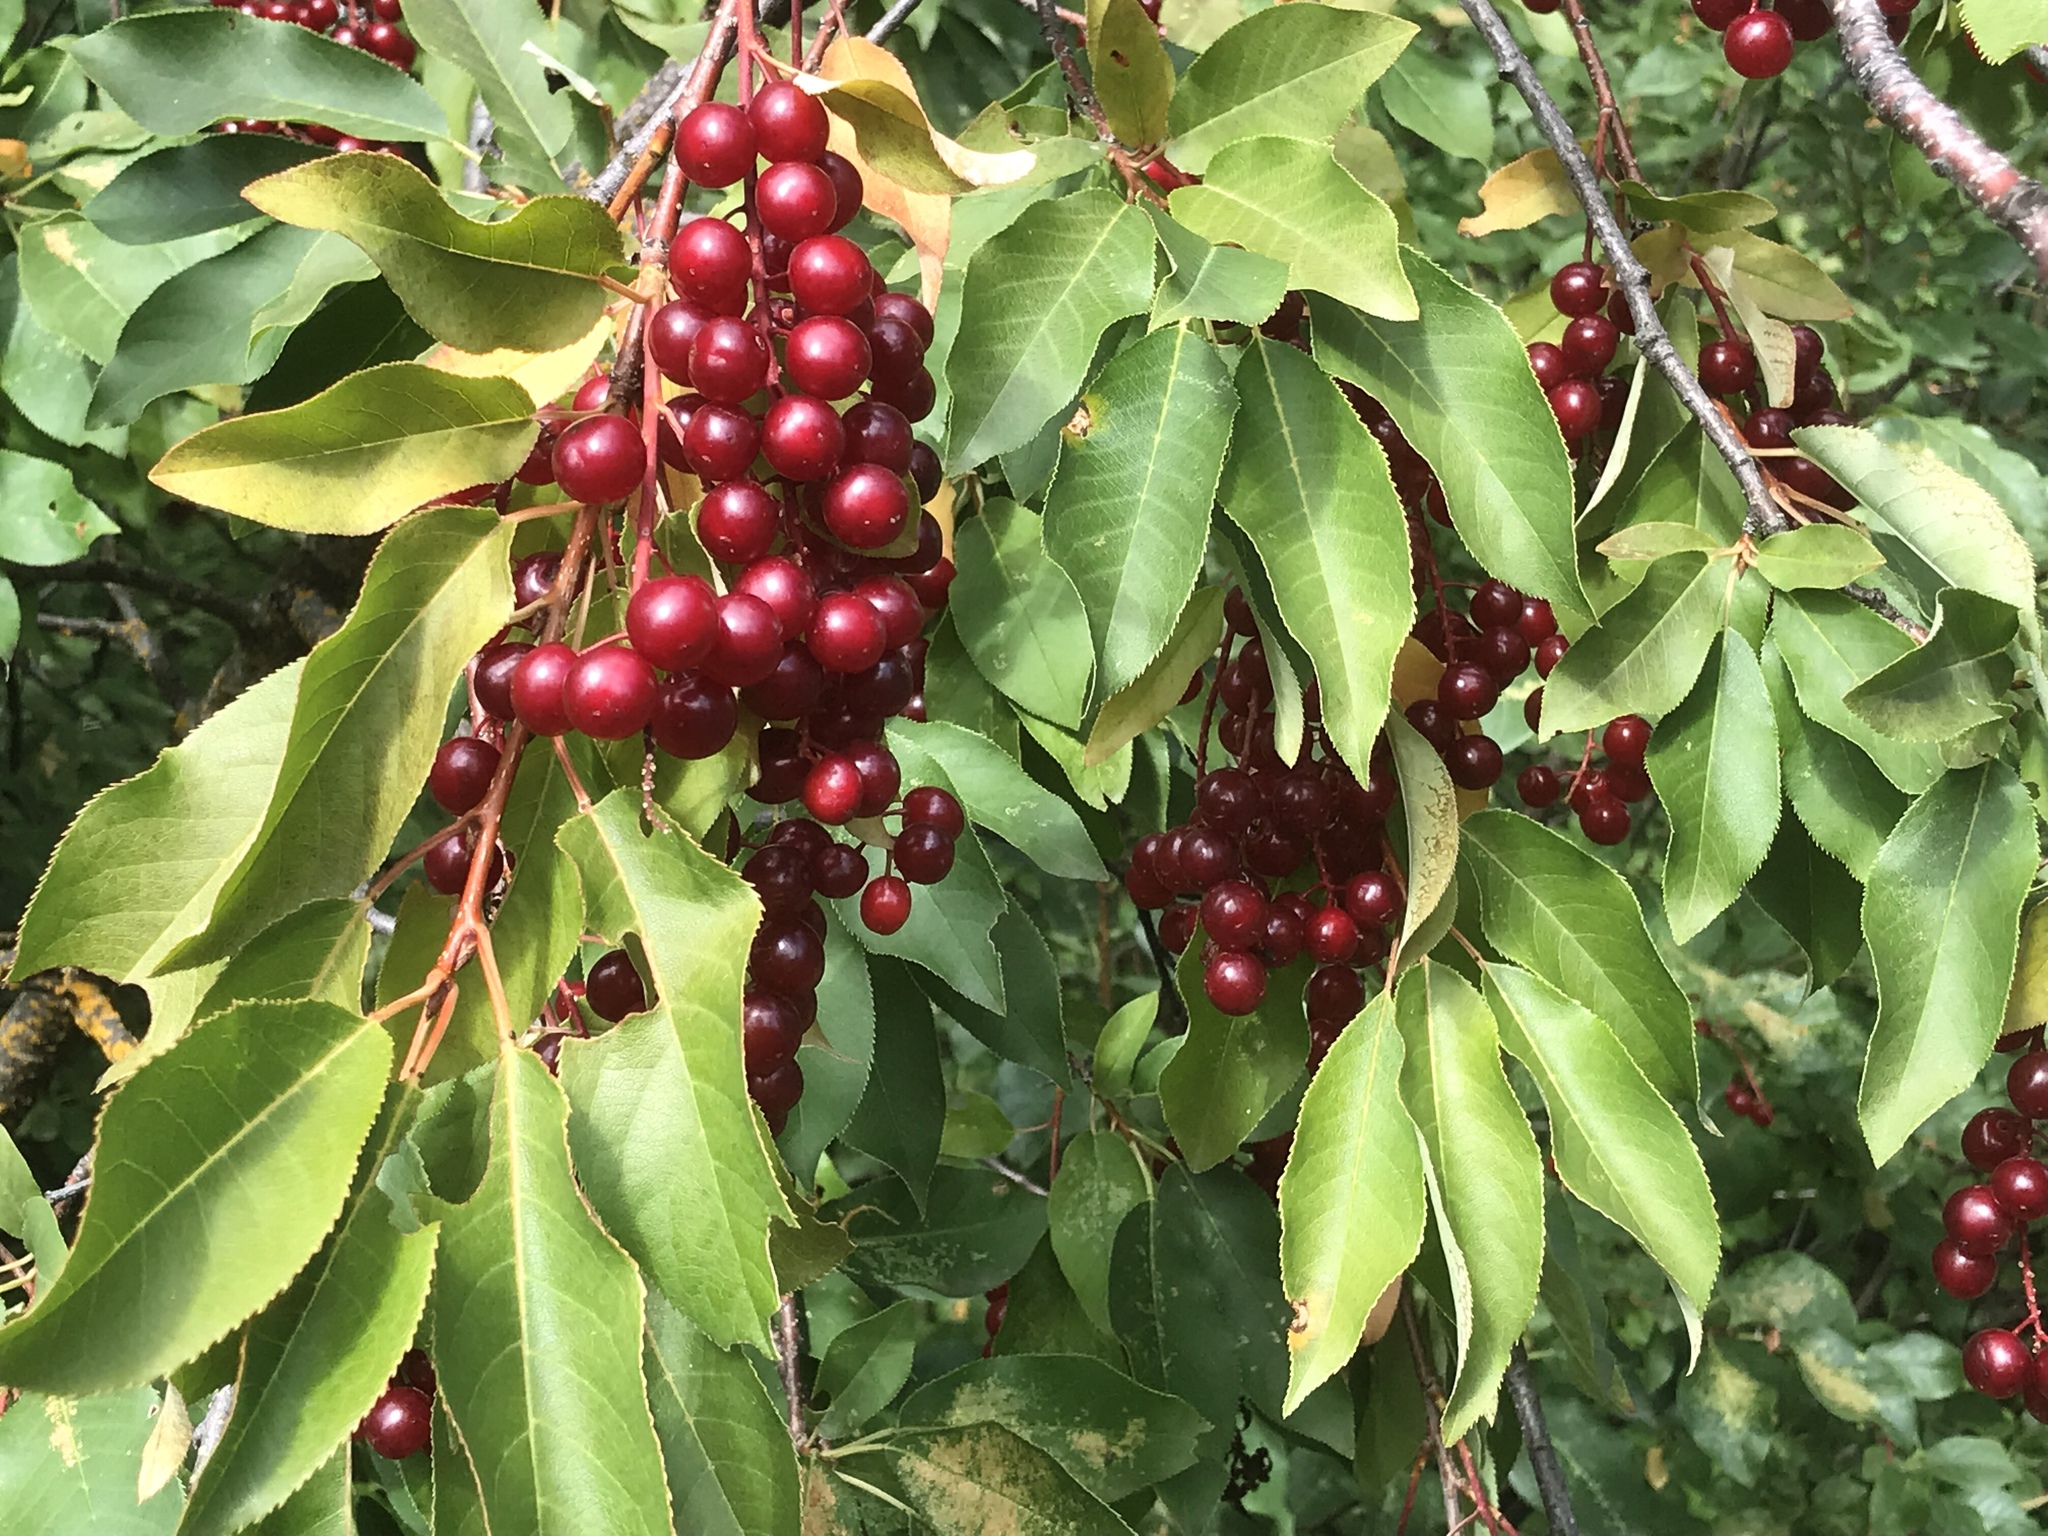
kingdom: Plantae
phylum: Tracheophyta
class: Magnoliopsida
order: Rosales
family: Rosaceae
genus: Prunus
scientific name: Prunus virginiana
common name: Chokecherry
